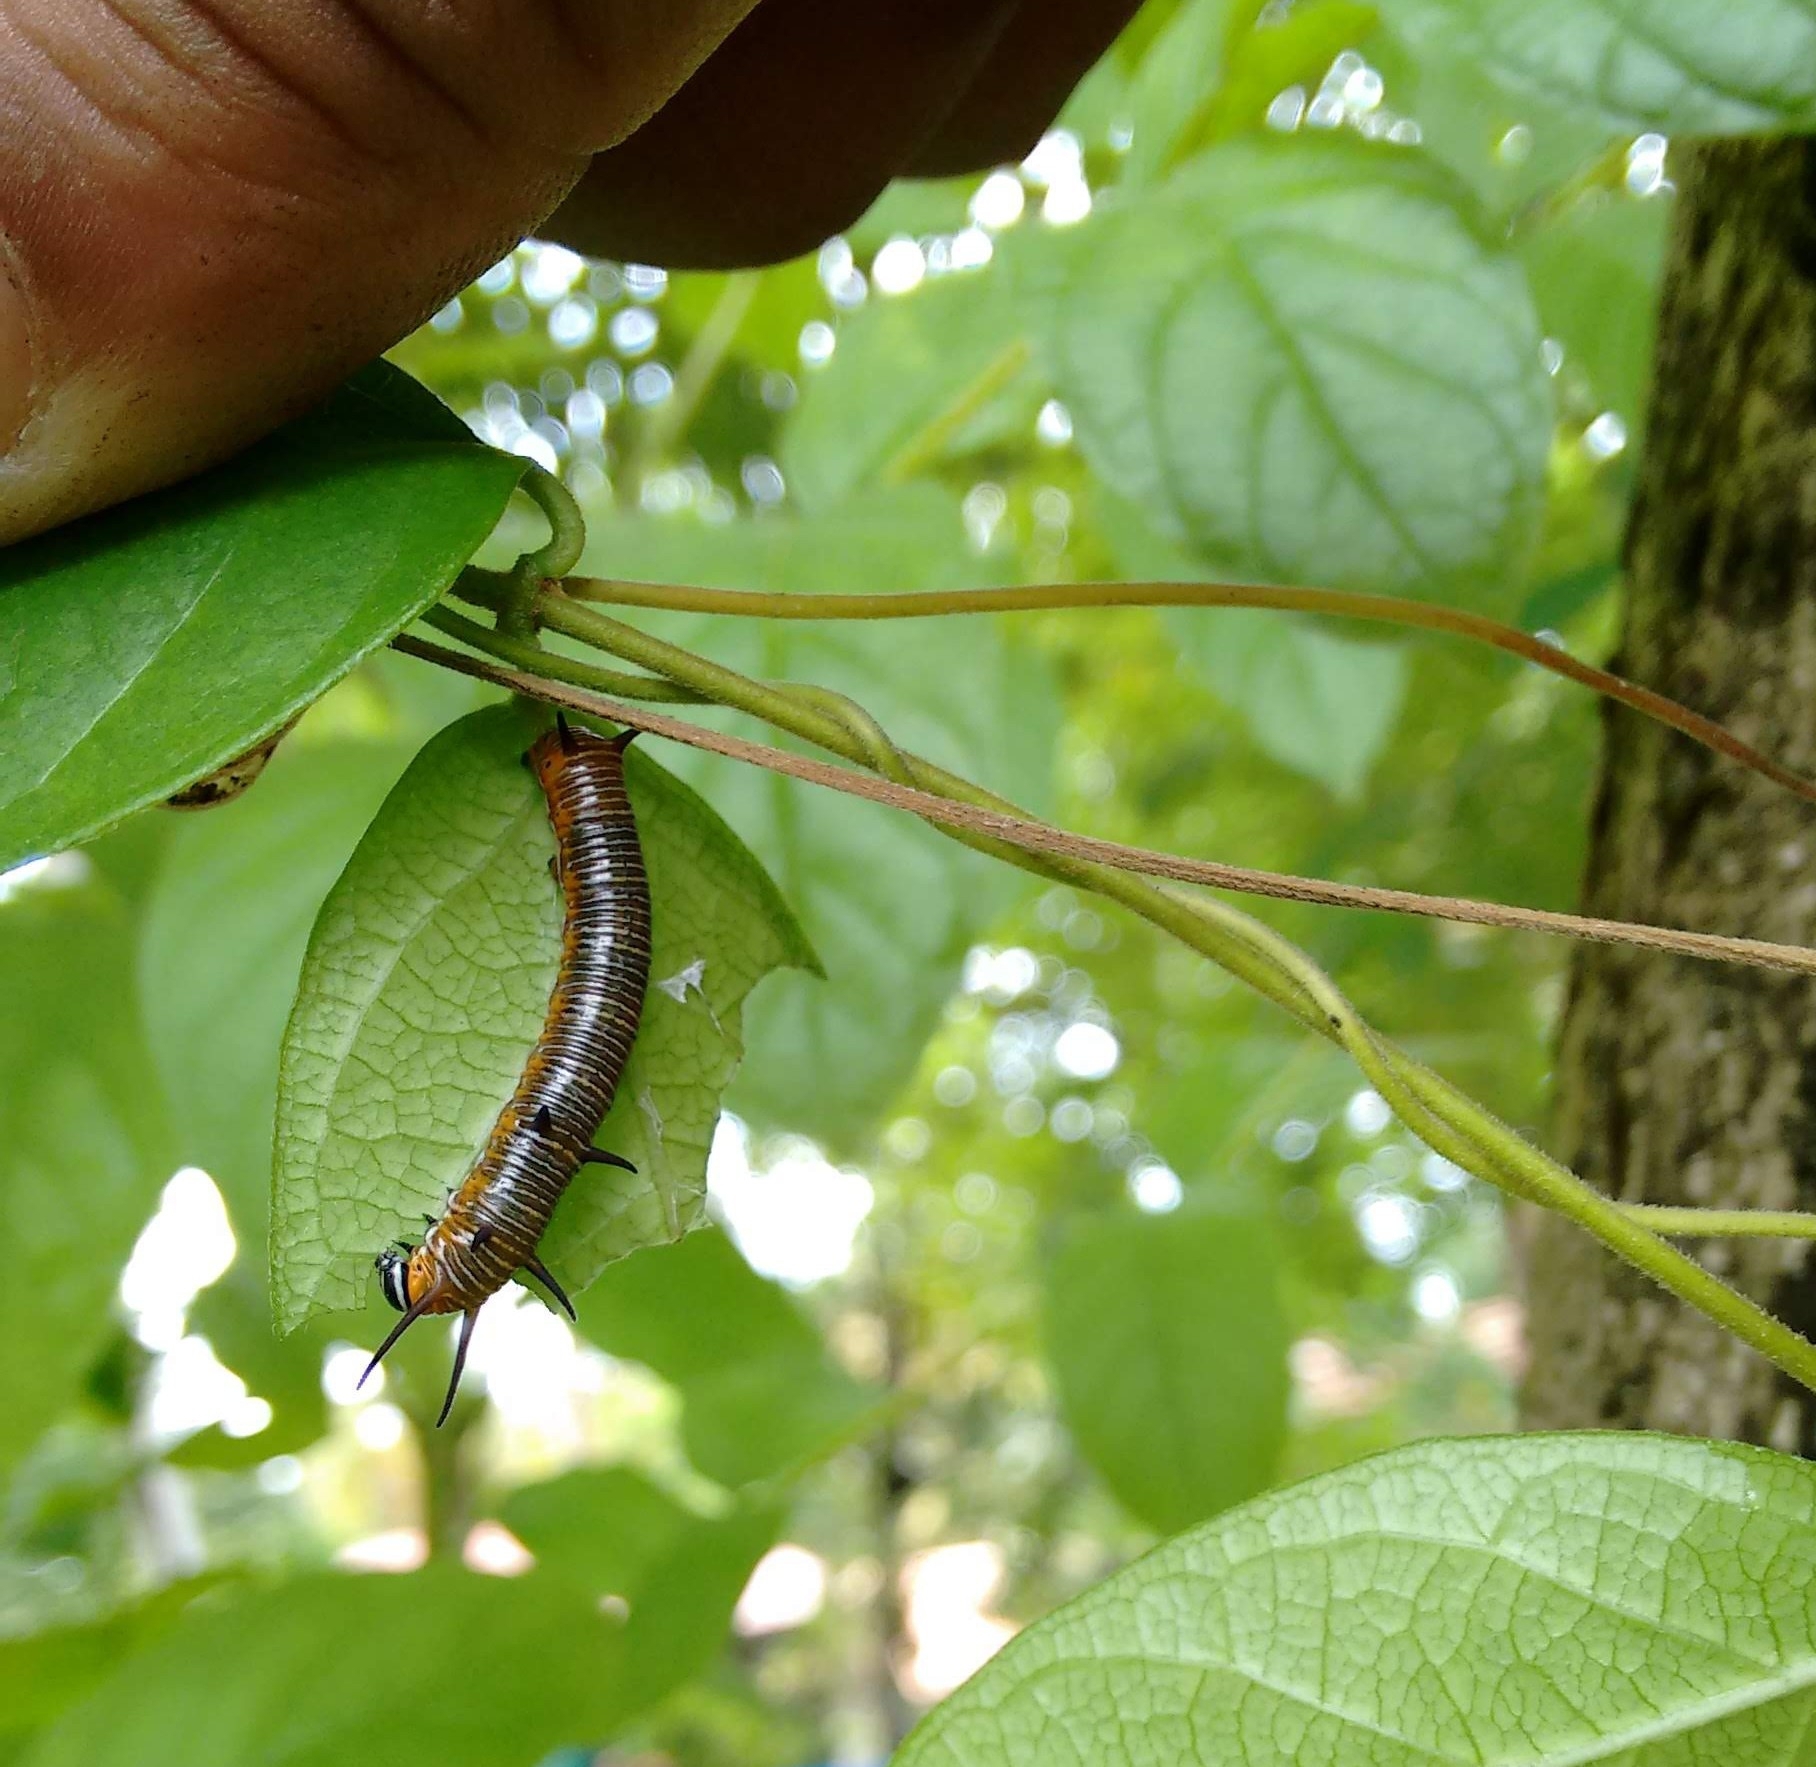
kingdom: Animalia
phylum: Arthropoda
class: Insecta
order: Lepidoptera
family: Nymphalidae
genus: Euploea
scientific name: Euploea core
